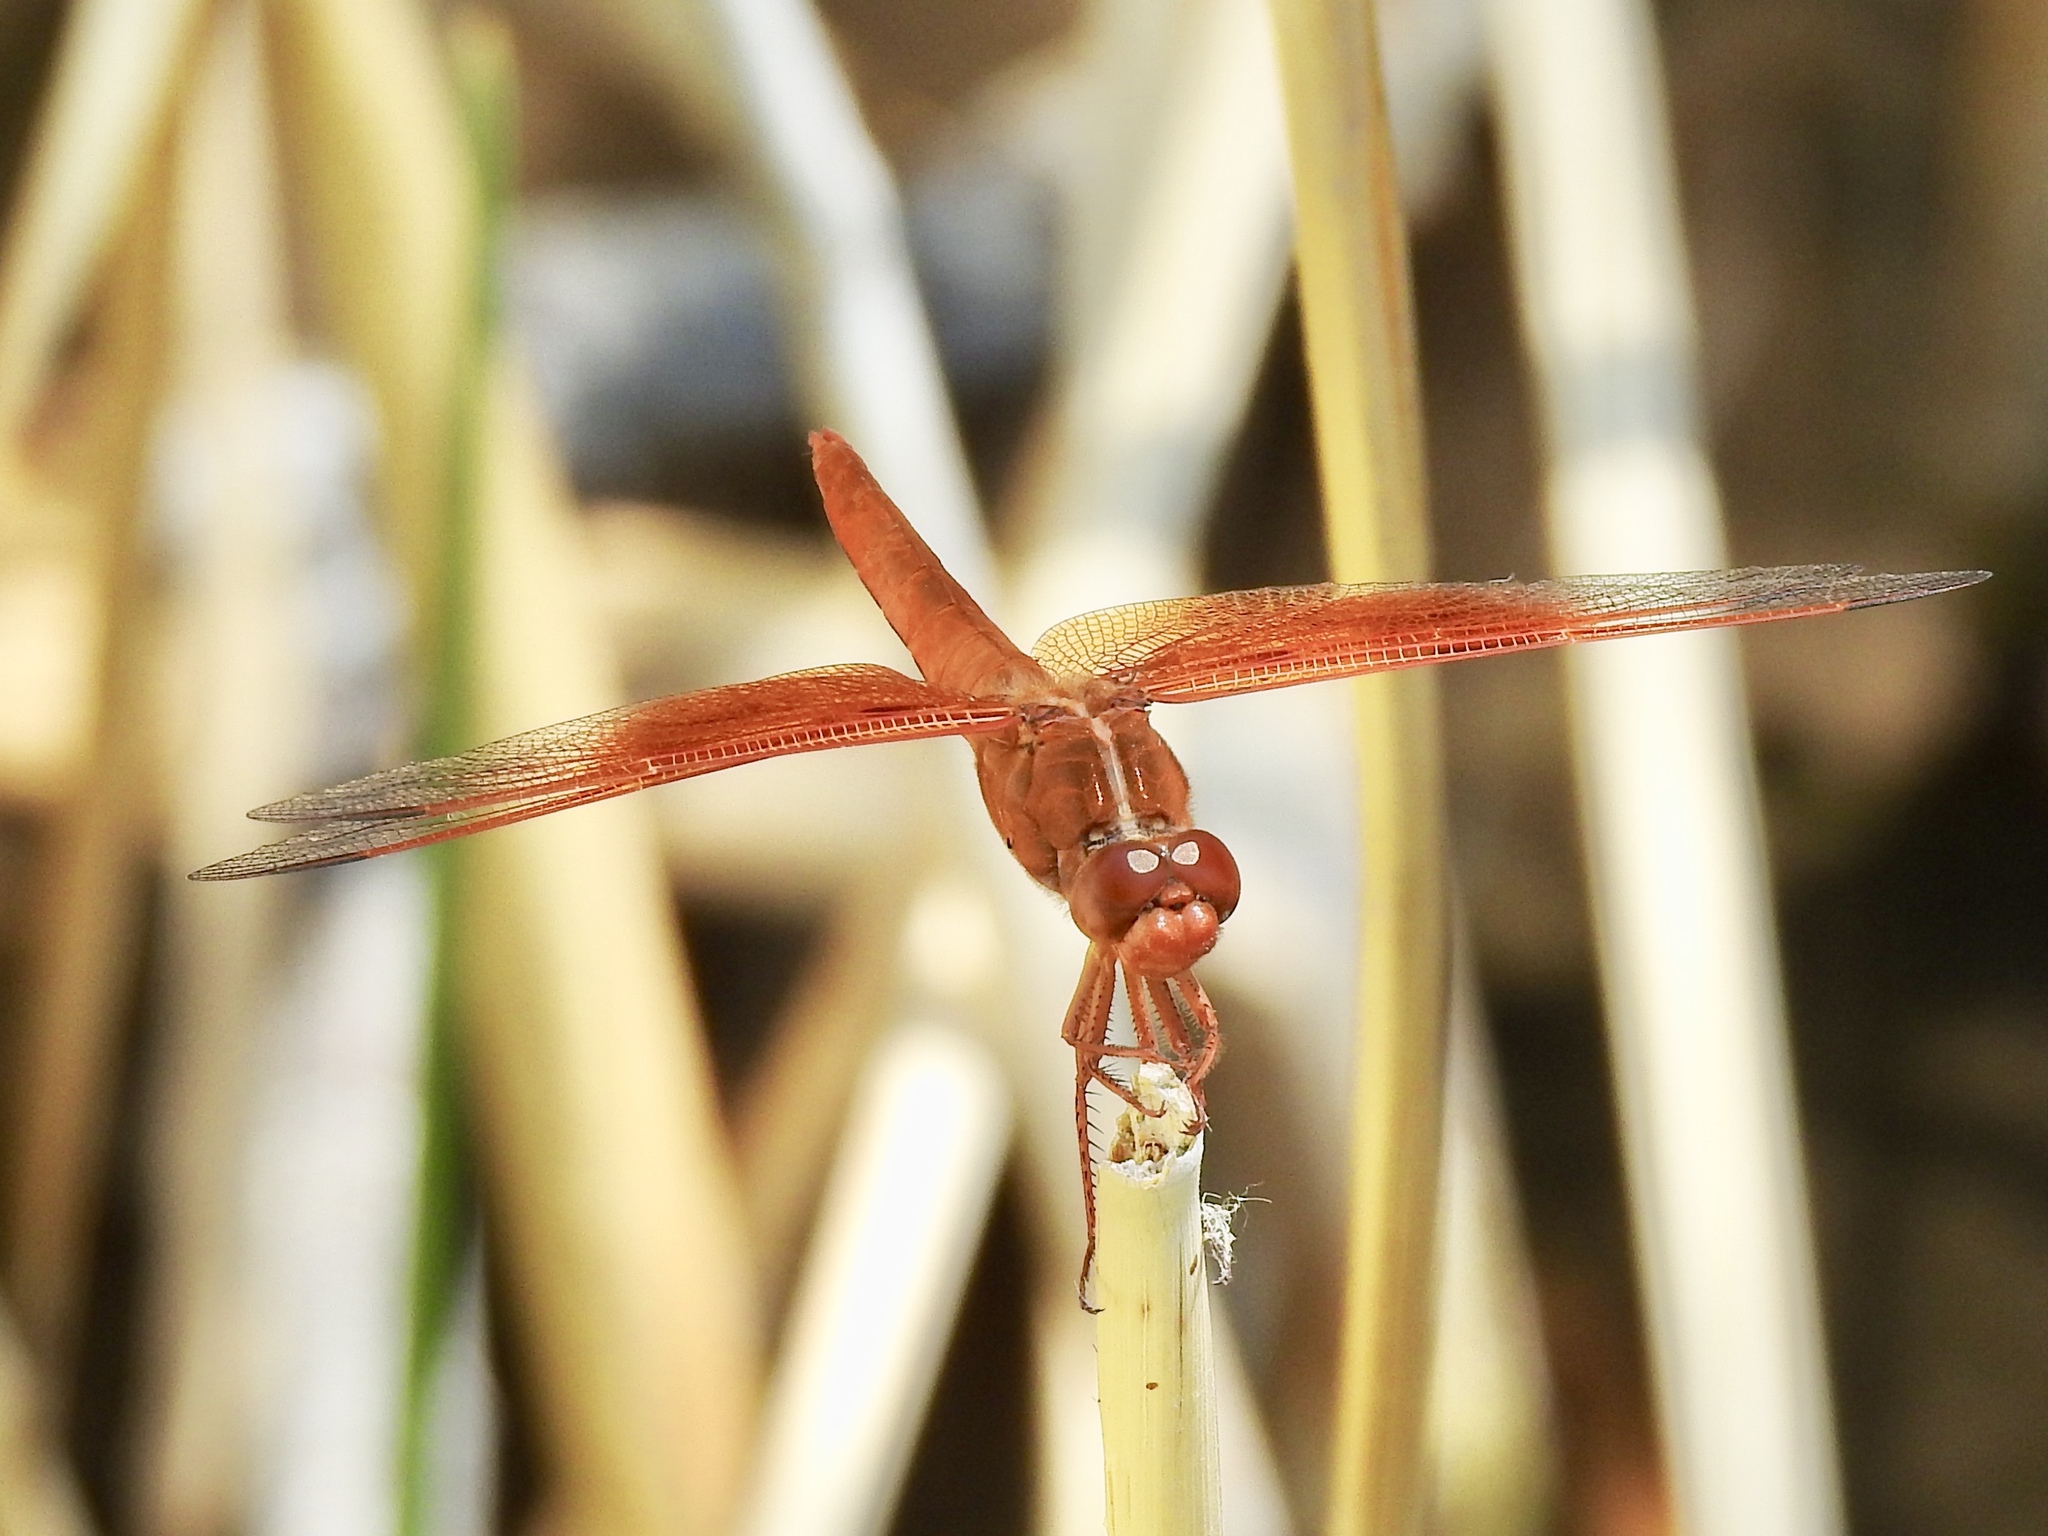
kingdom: Animalia
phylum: Arthropoda
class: Insecta
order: Odonata
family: Libellulidae
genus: Libellula
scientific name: Libellula saturata
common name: Flame skimmer
